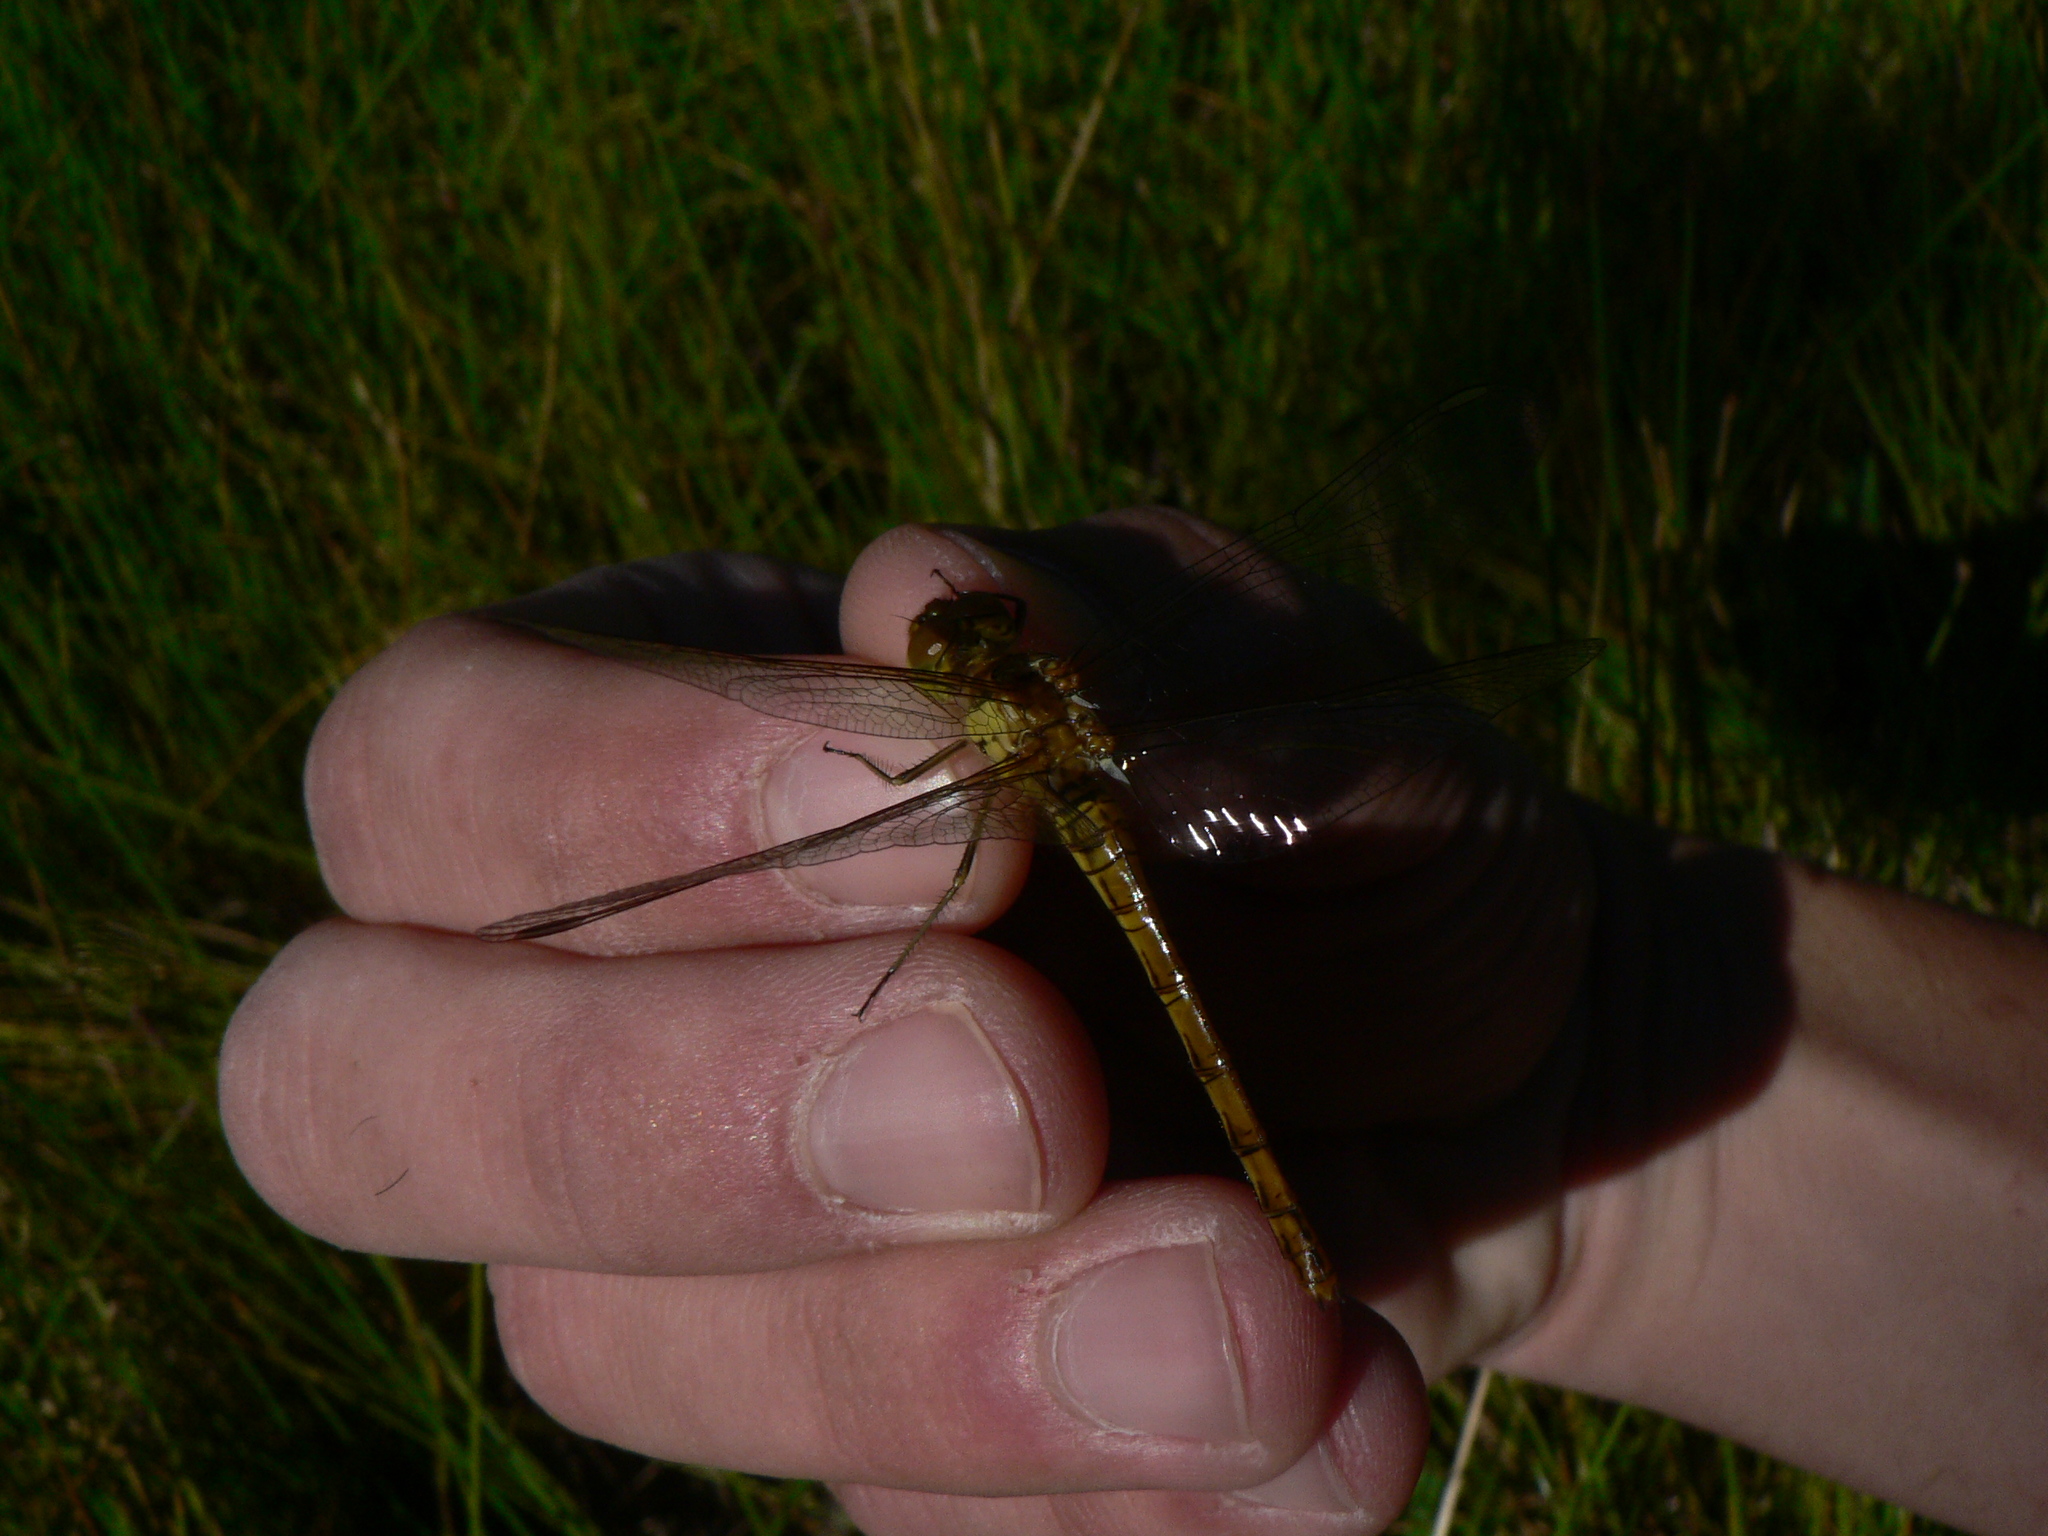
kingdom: Animalia
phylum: Arthropoda
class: Insecta
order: Odonata
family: Libellulidae
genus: Sympetrum
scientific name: Sympetrum striolatum
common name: Common darter
